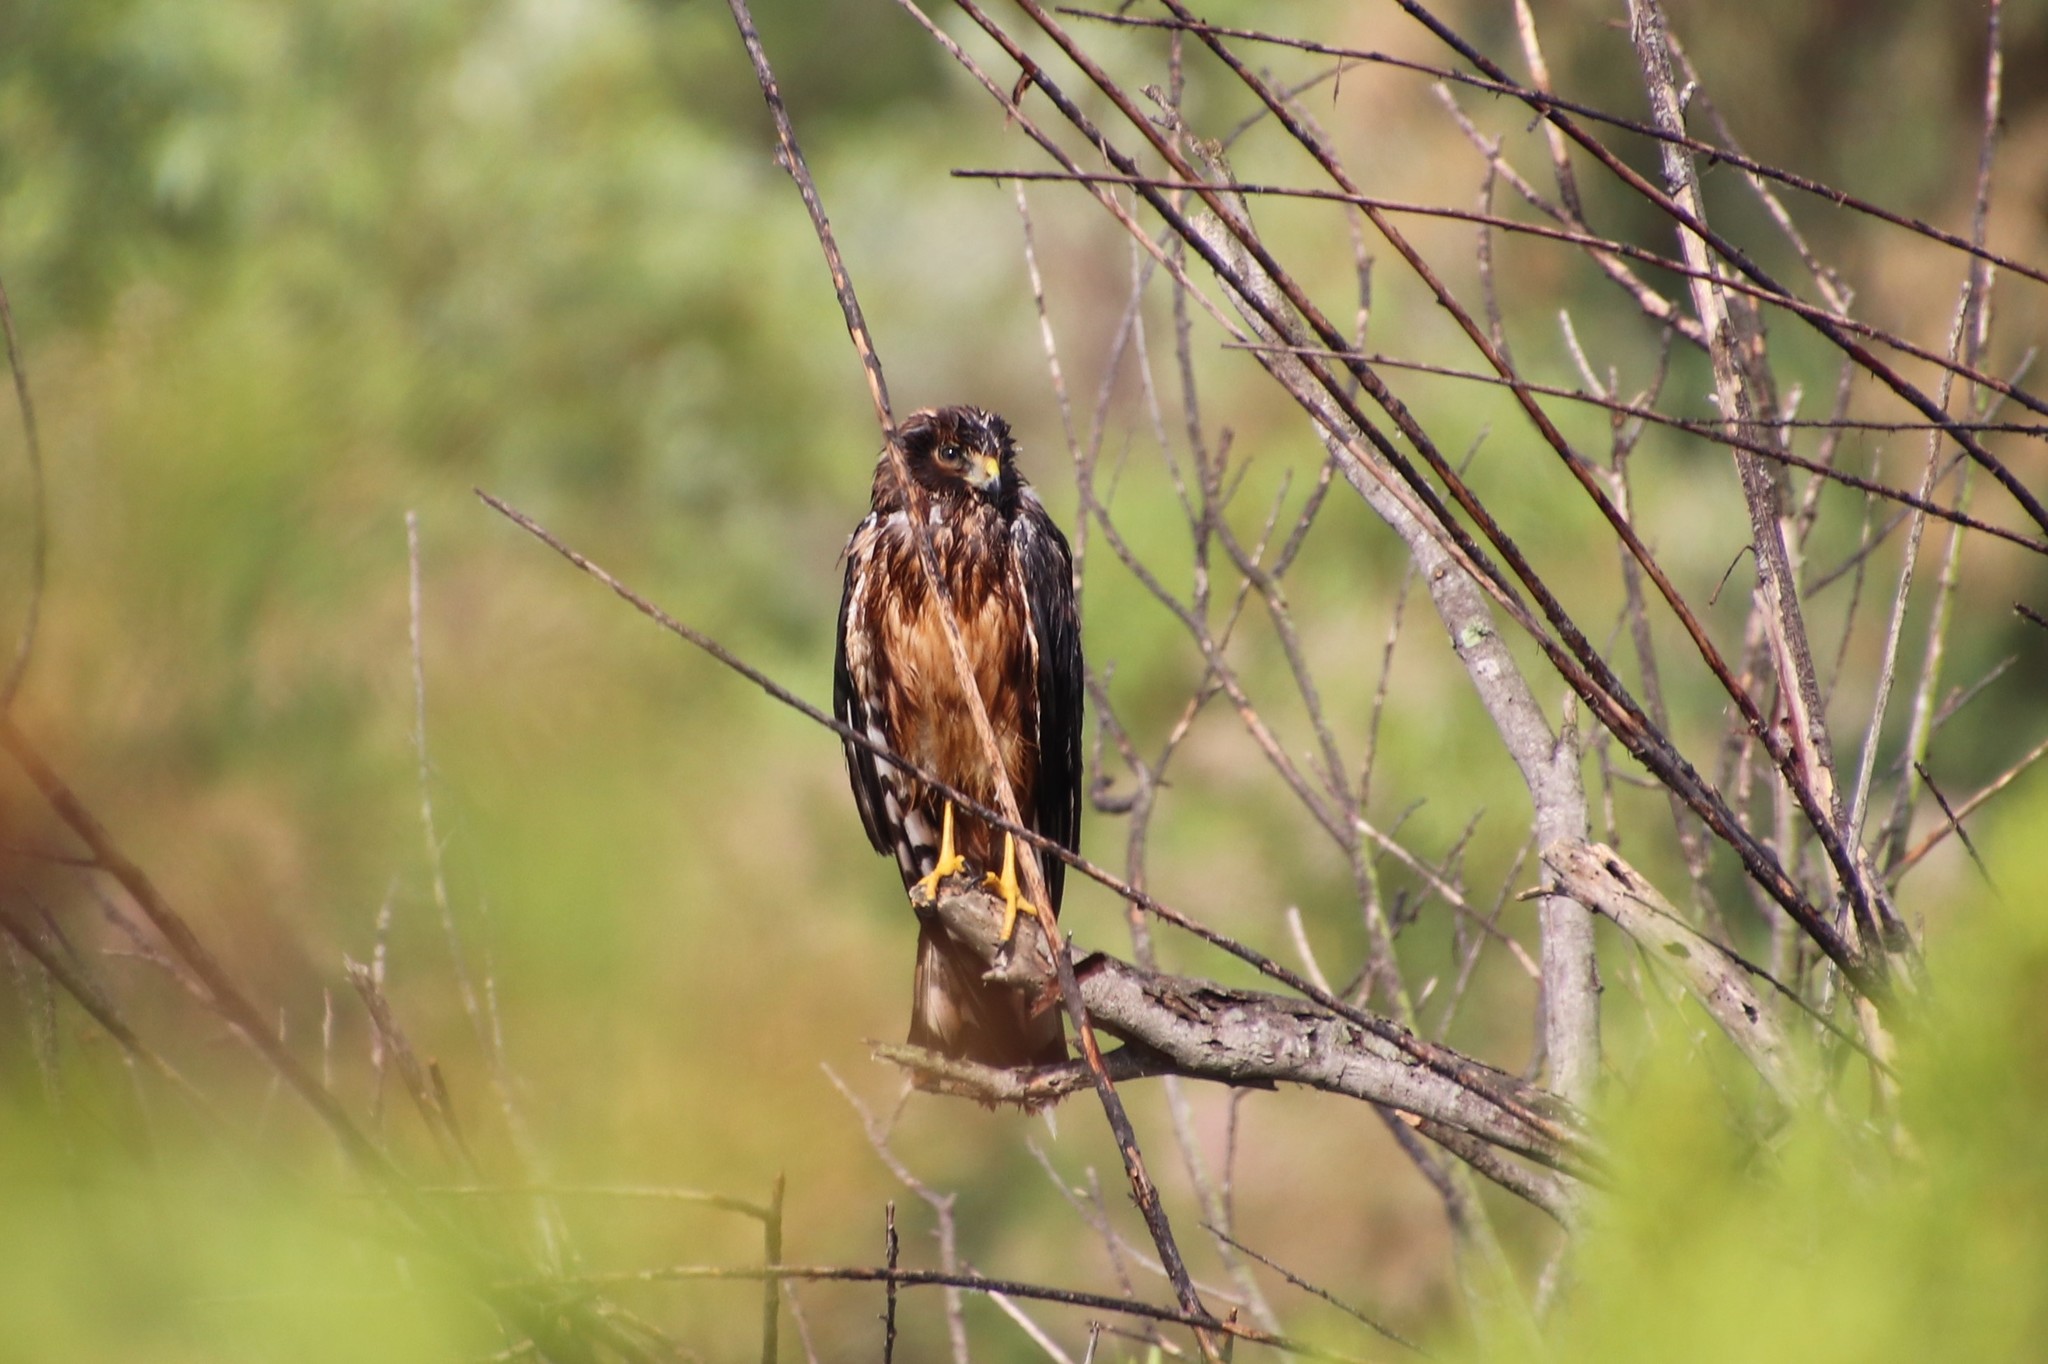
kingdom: Animalia
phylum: Chordata
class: Aves
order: Accipitriformes
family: Accipitridae
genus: Circus
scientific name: Circus cyaneus
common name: Hen harrier
